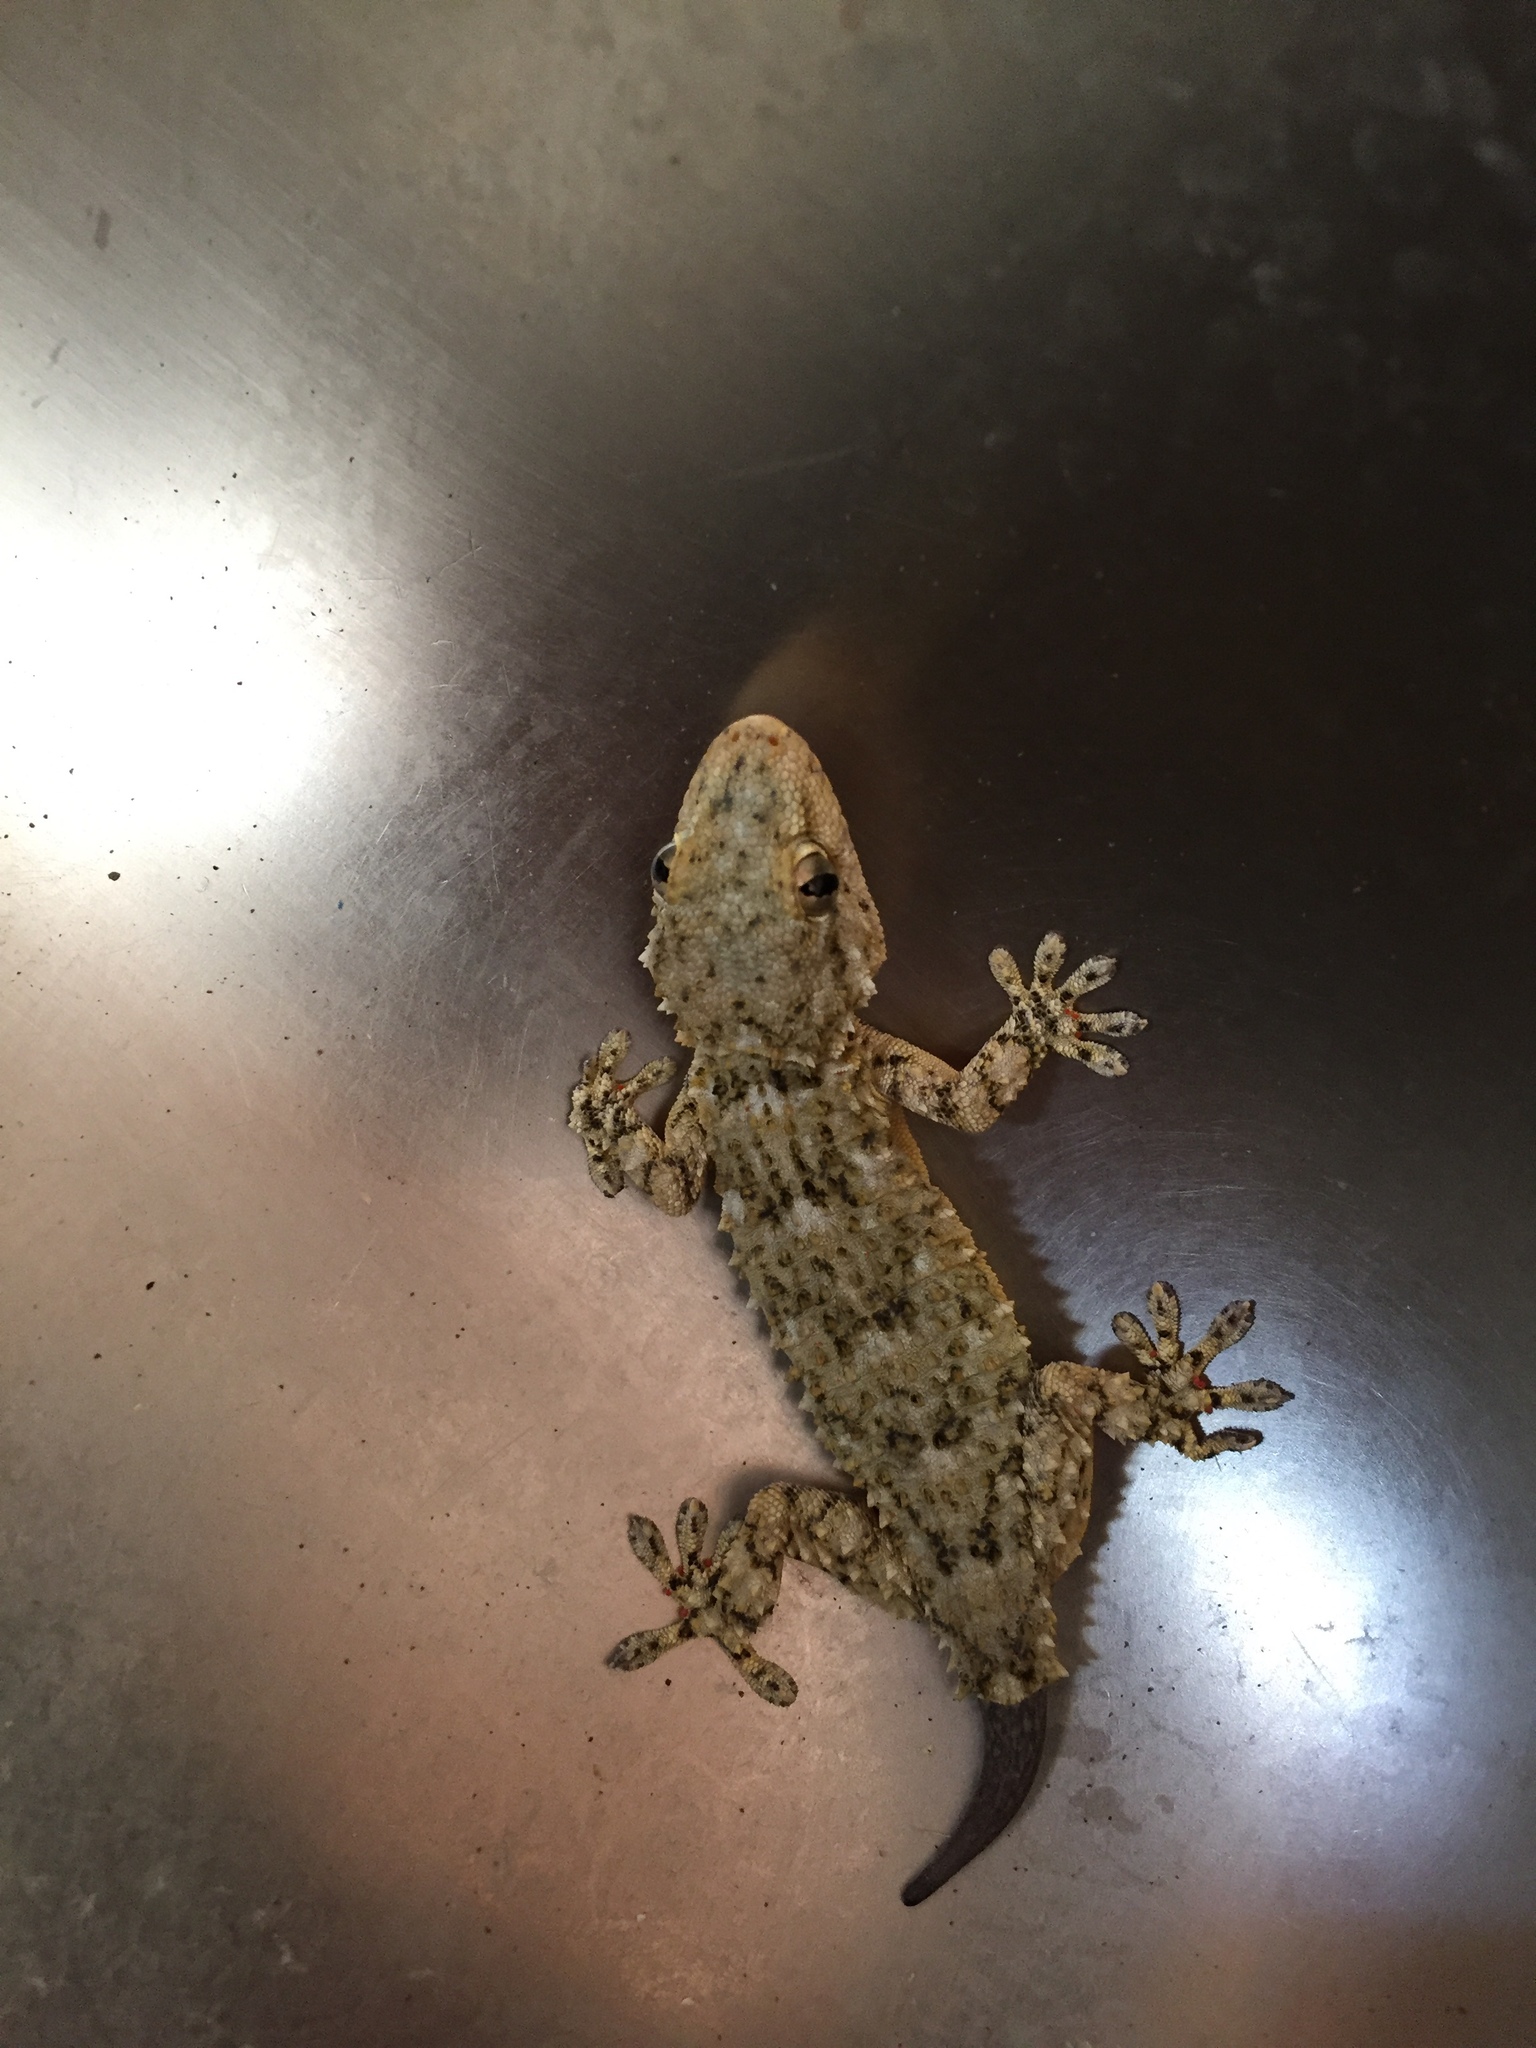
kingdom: Animalia
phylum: Chordata
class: Squamata
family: Phyllodactylidae
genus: Tarentola
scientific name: Tarentola mauritanica
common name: Moorish gecko
